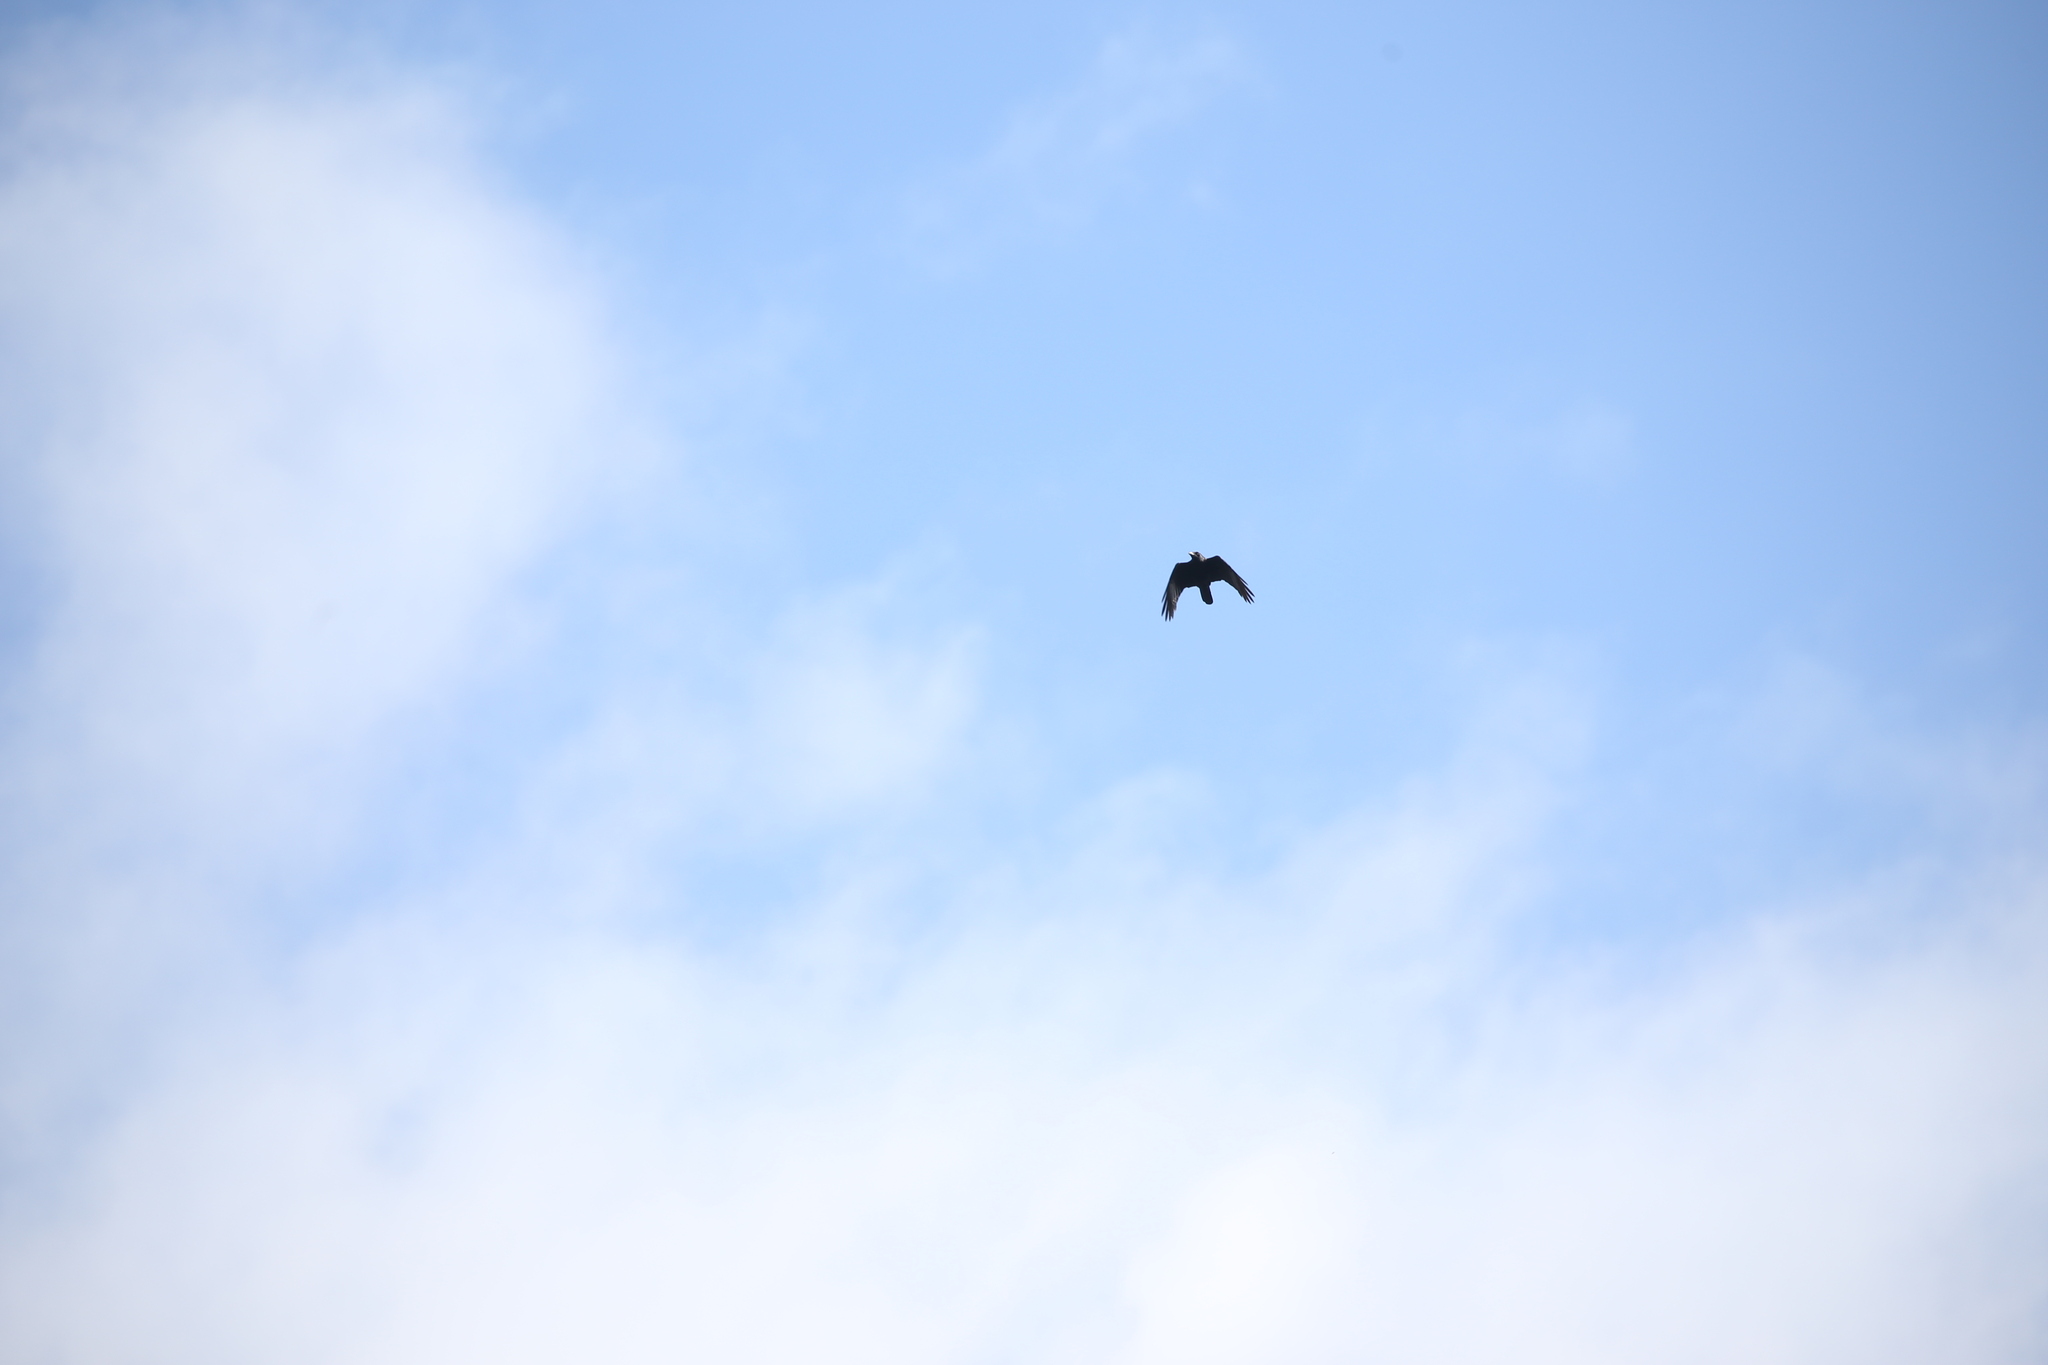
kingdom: Animalia
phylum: Chordata
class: Aves
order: Passeriformes
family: Corvidae
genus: Corvus
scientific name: Corvus orru
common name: Torresian crow
